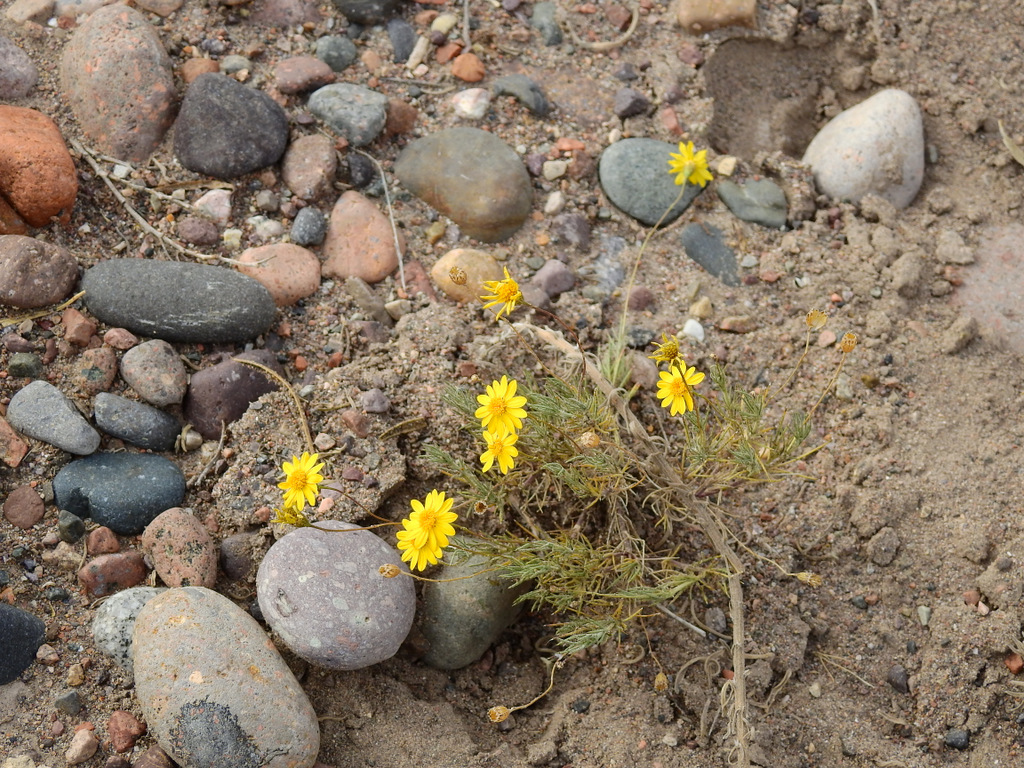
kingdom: Plantae
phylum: Tracheophyta
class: Magnoliopsida
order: Asterales
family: Asteraceae
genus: Thymophylla
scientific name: Thymophylla pentachaeta
